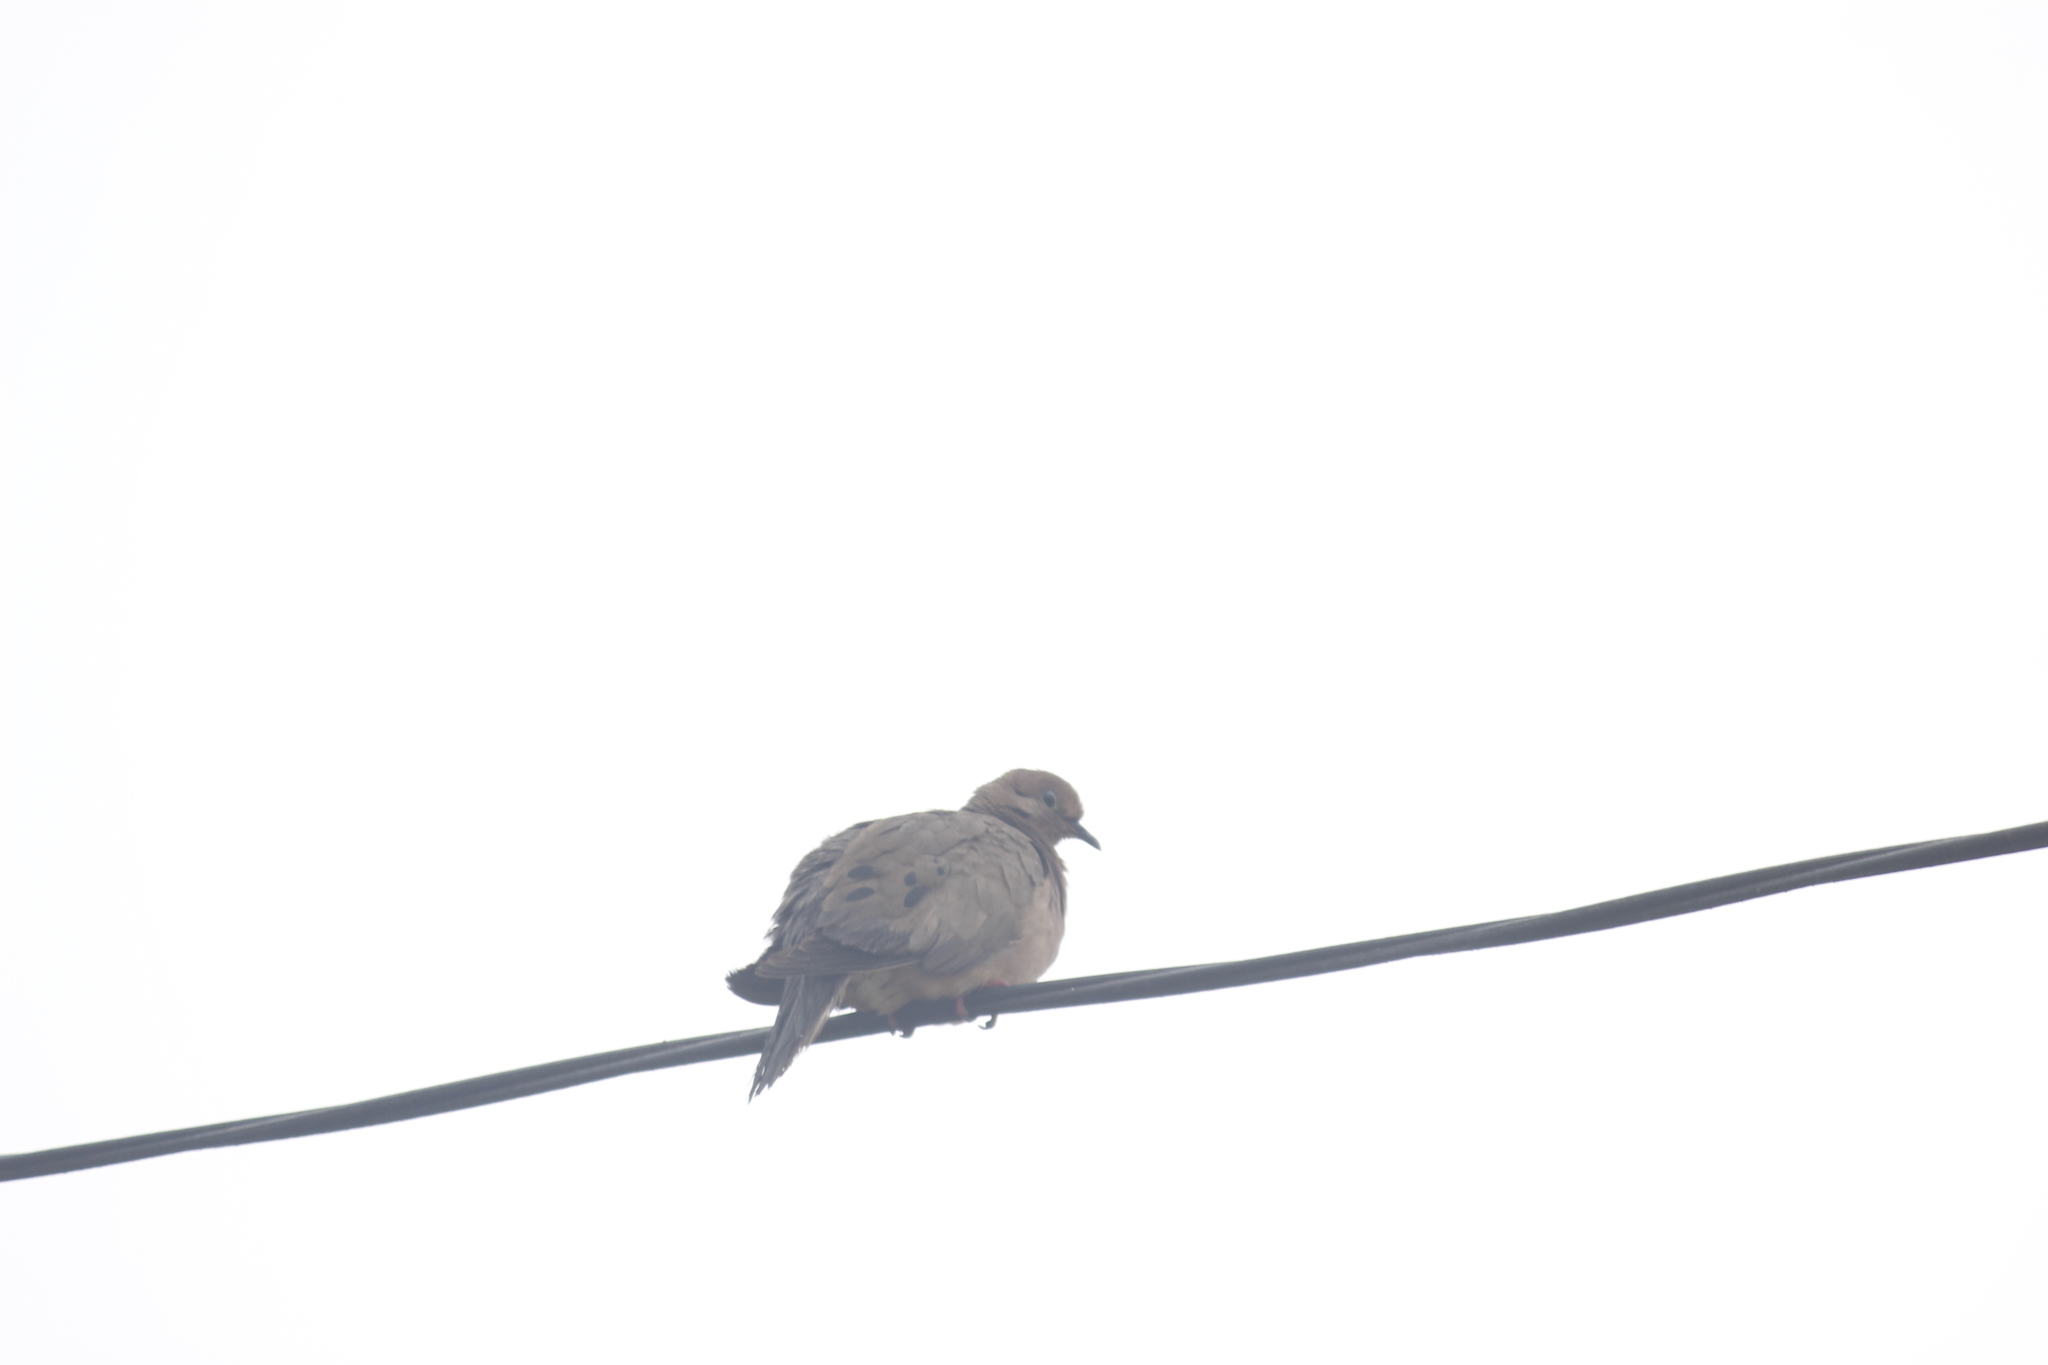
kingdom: Animalia
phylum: Chordata
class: Aves
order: Columbiformes
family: Columbidae
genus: Zenaida
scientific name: Zenaida auriculata
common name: Eared dove
